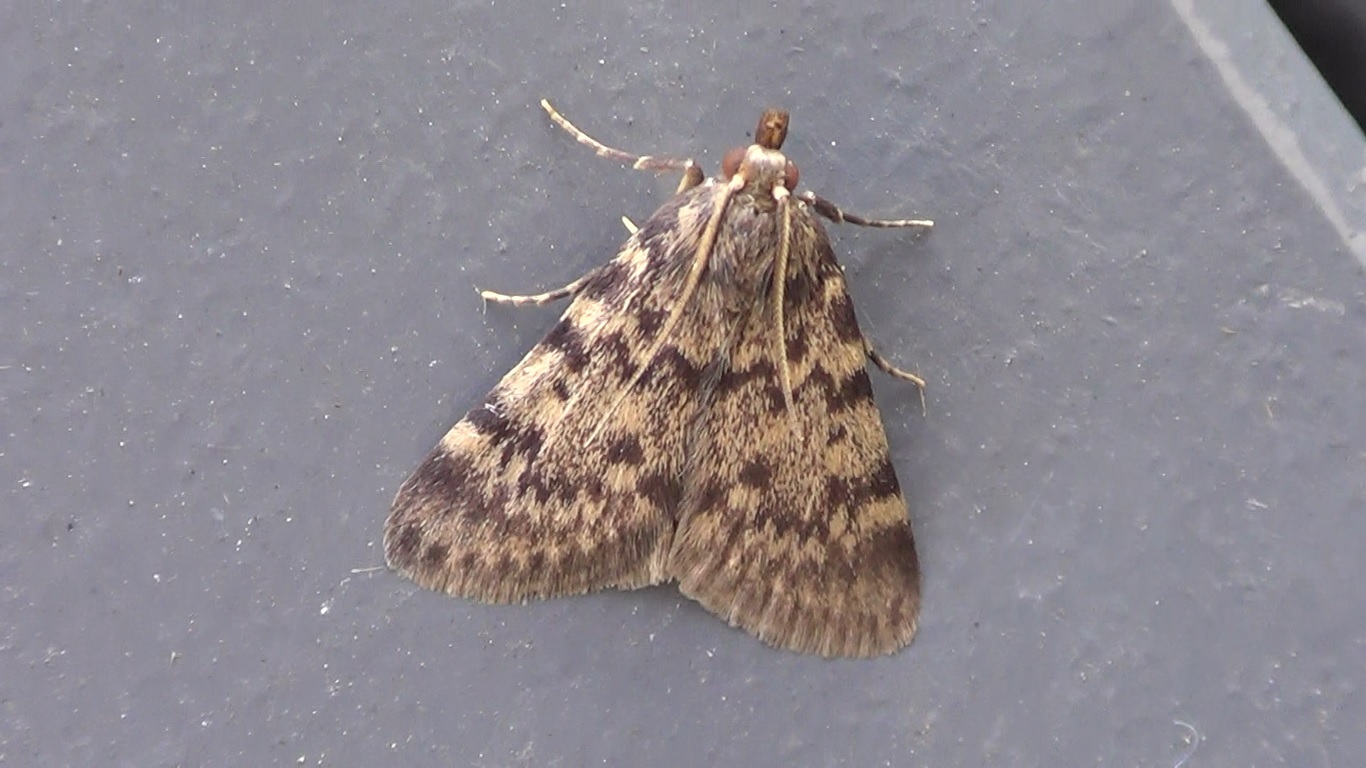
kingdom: Animalia
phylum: Arthropoda
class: Insecta
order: Lepidoptera
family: Pyralidae
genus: Aglossa
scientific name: Aglossa pinguinalis
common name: Large tabby
